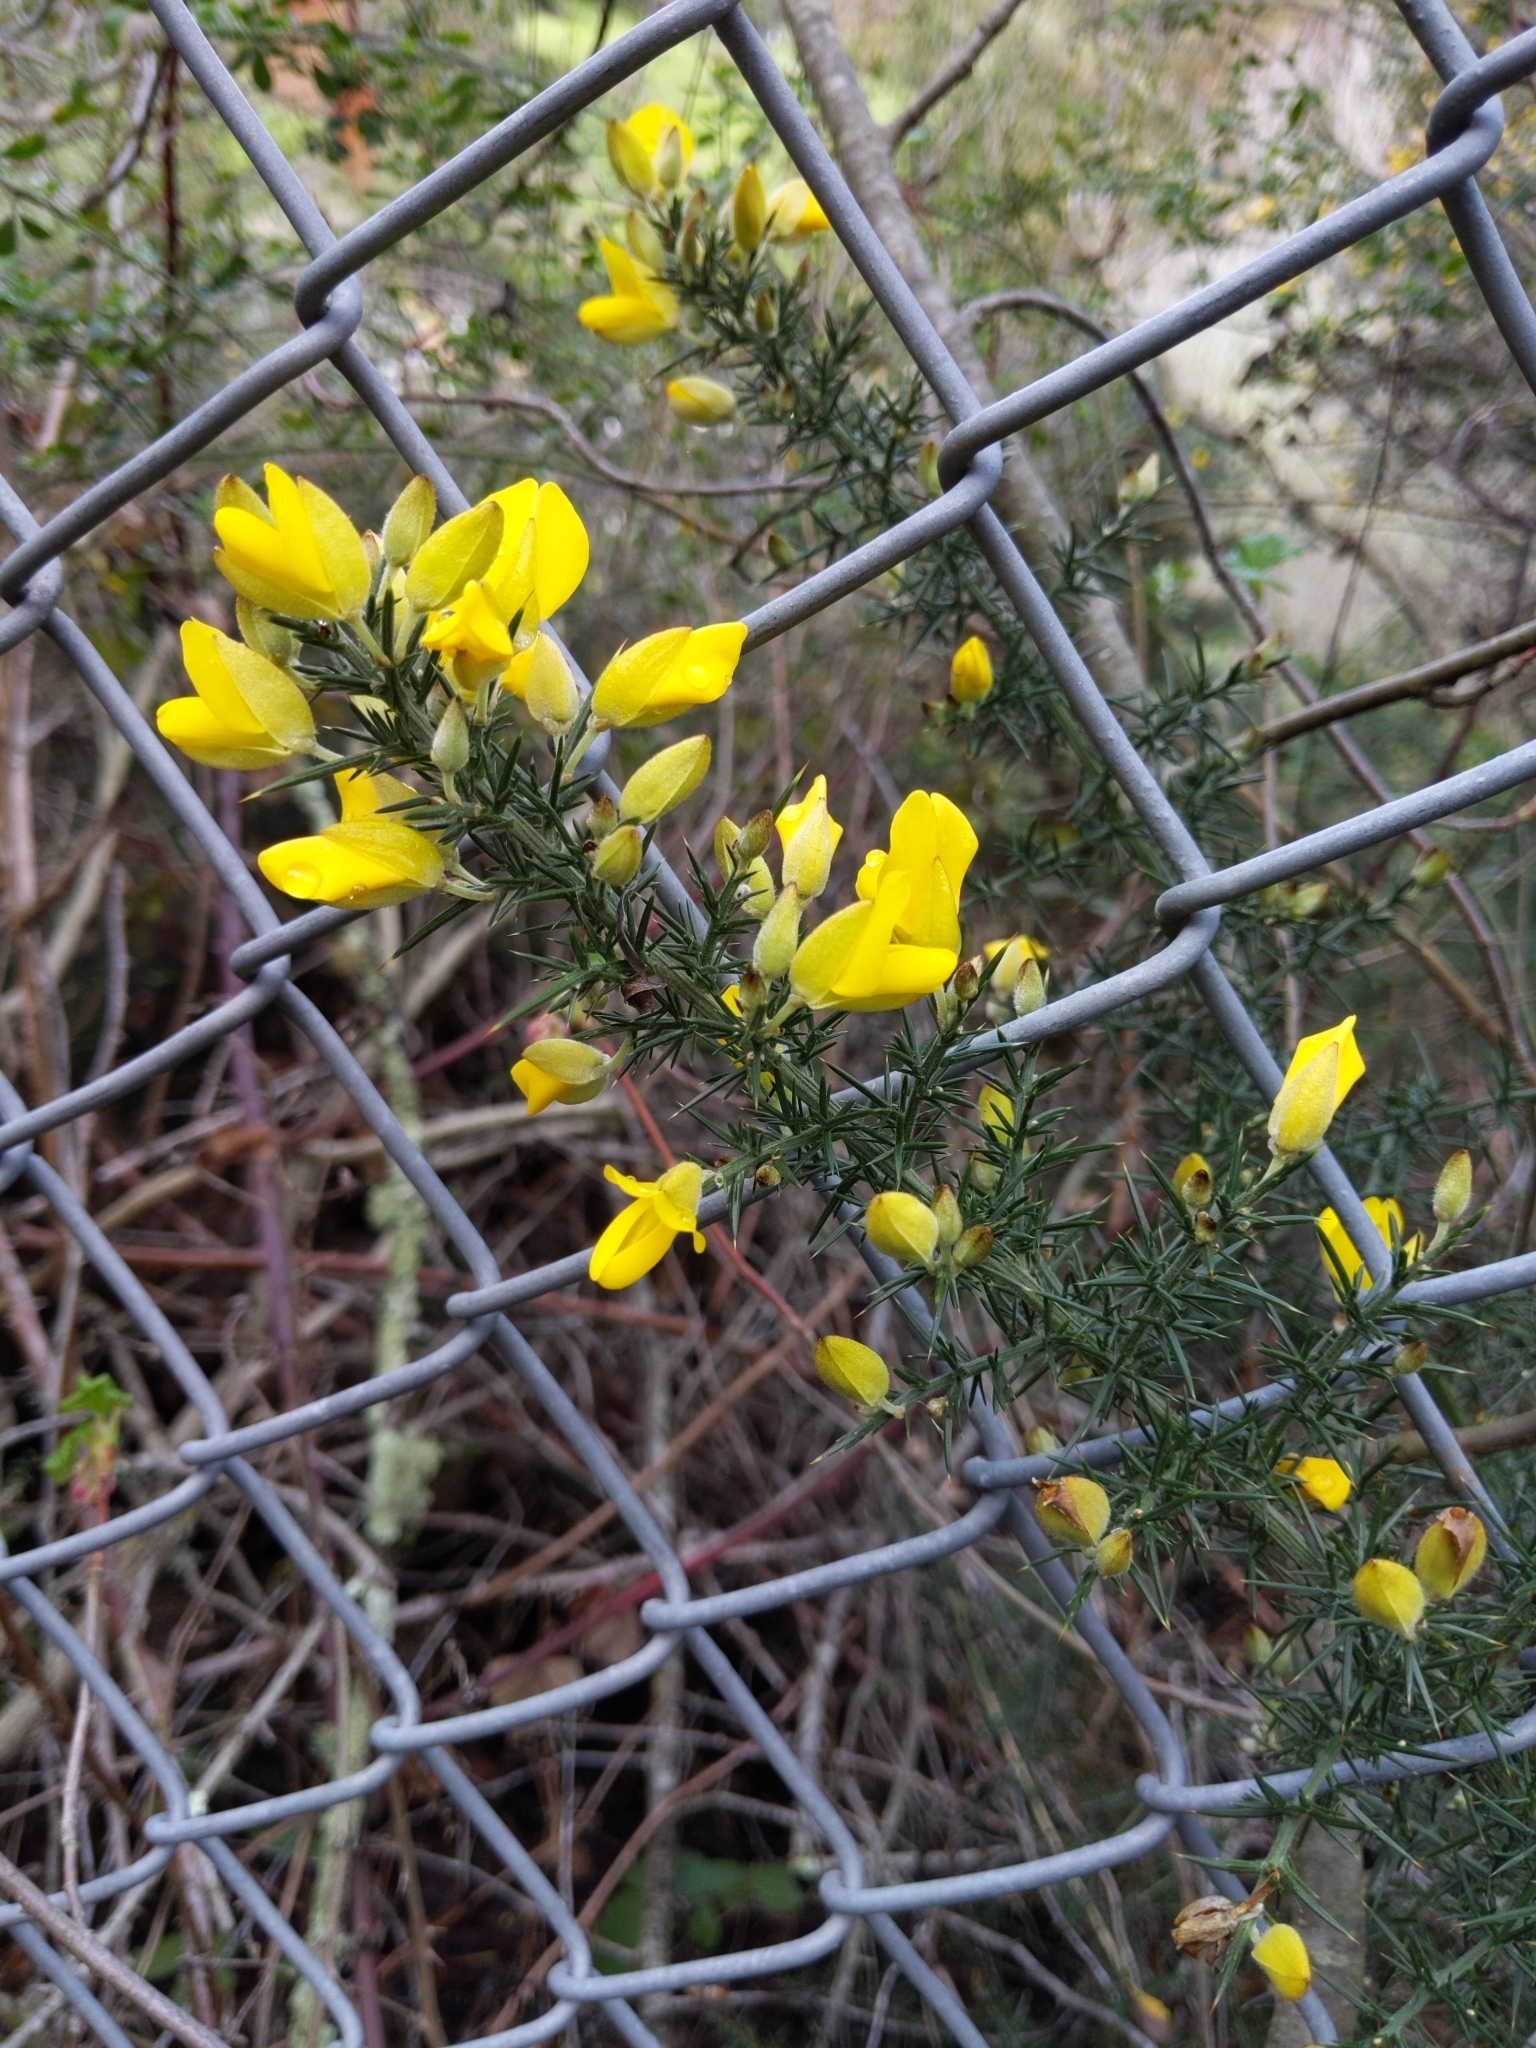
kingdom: Plantae
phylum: Tracheophyta
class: Magnoliopsida
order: Fabales
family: Fabaceae
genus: Ulex
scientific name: Ulex europaeus
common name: Common gorse
